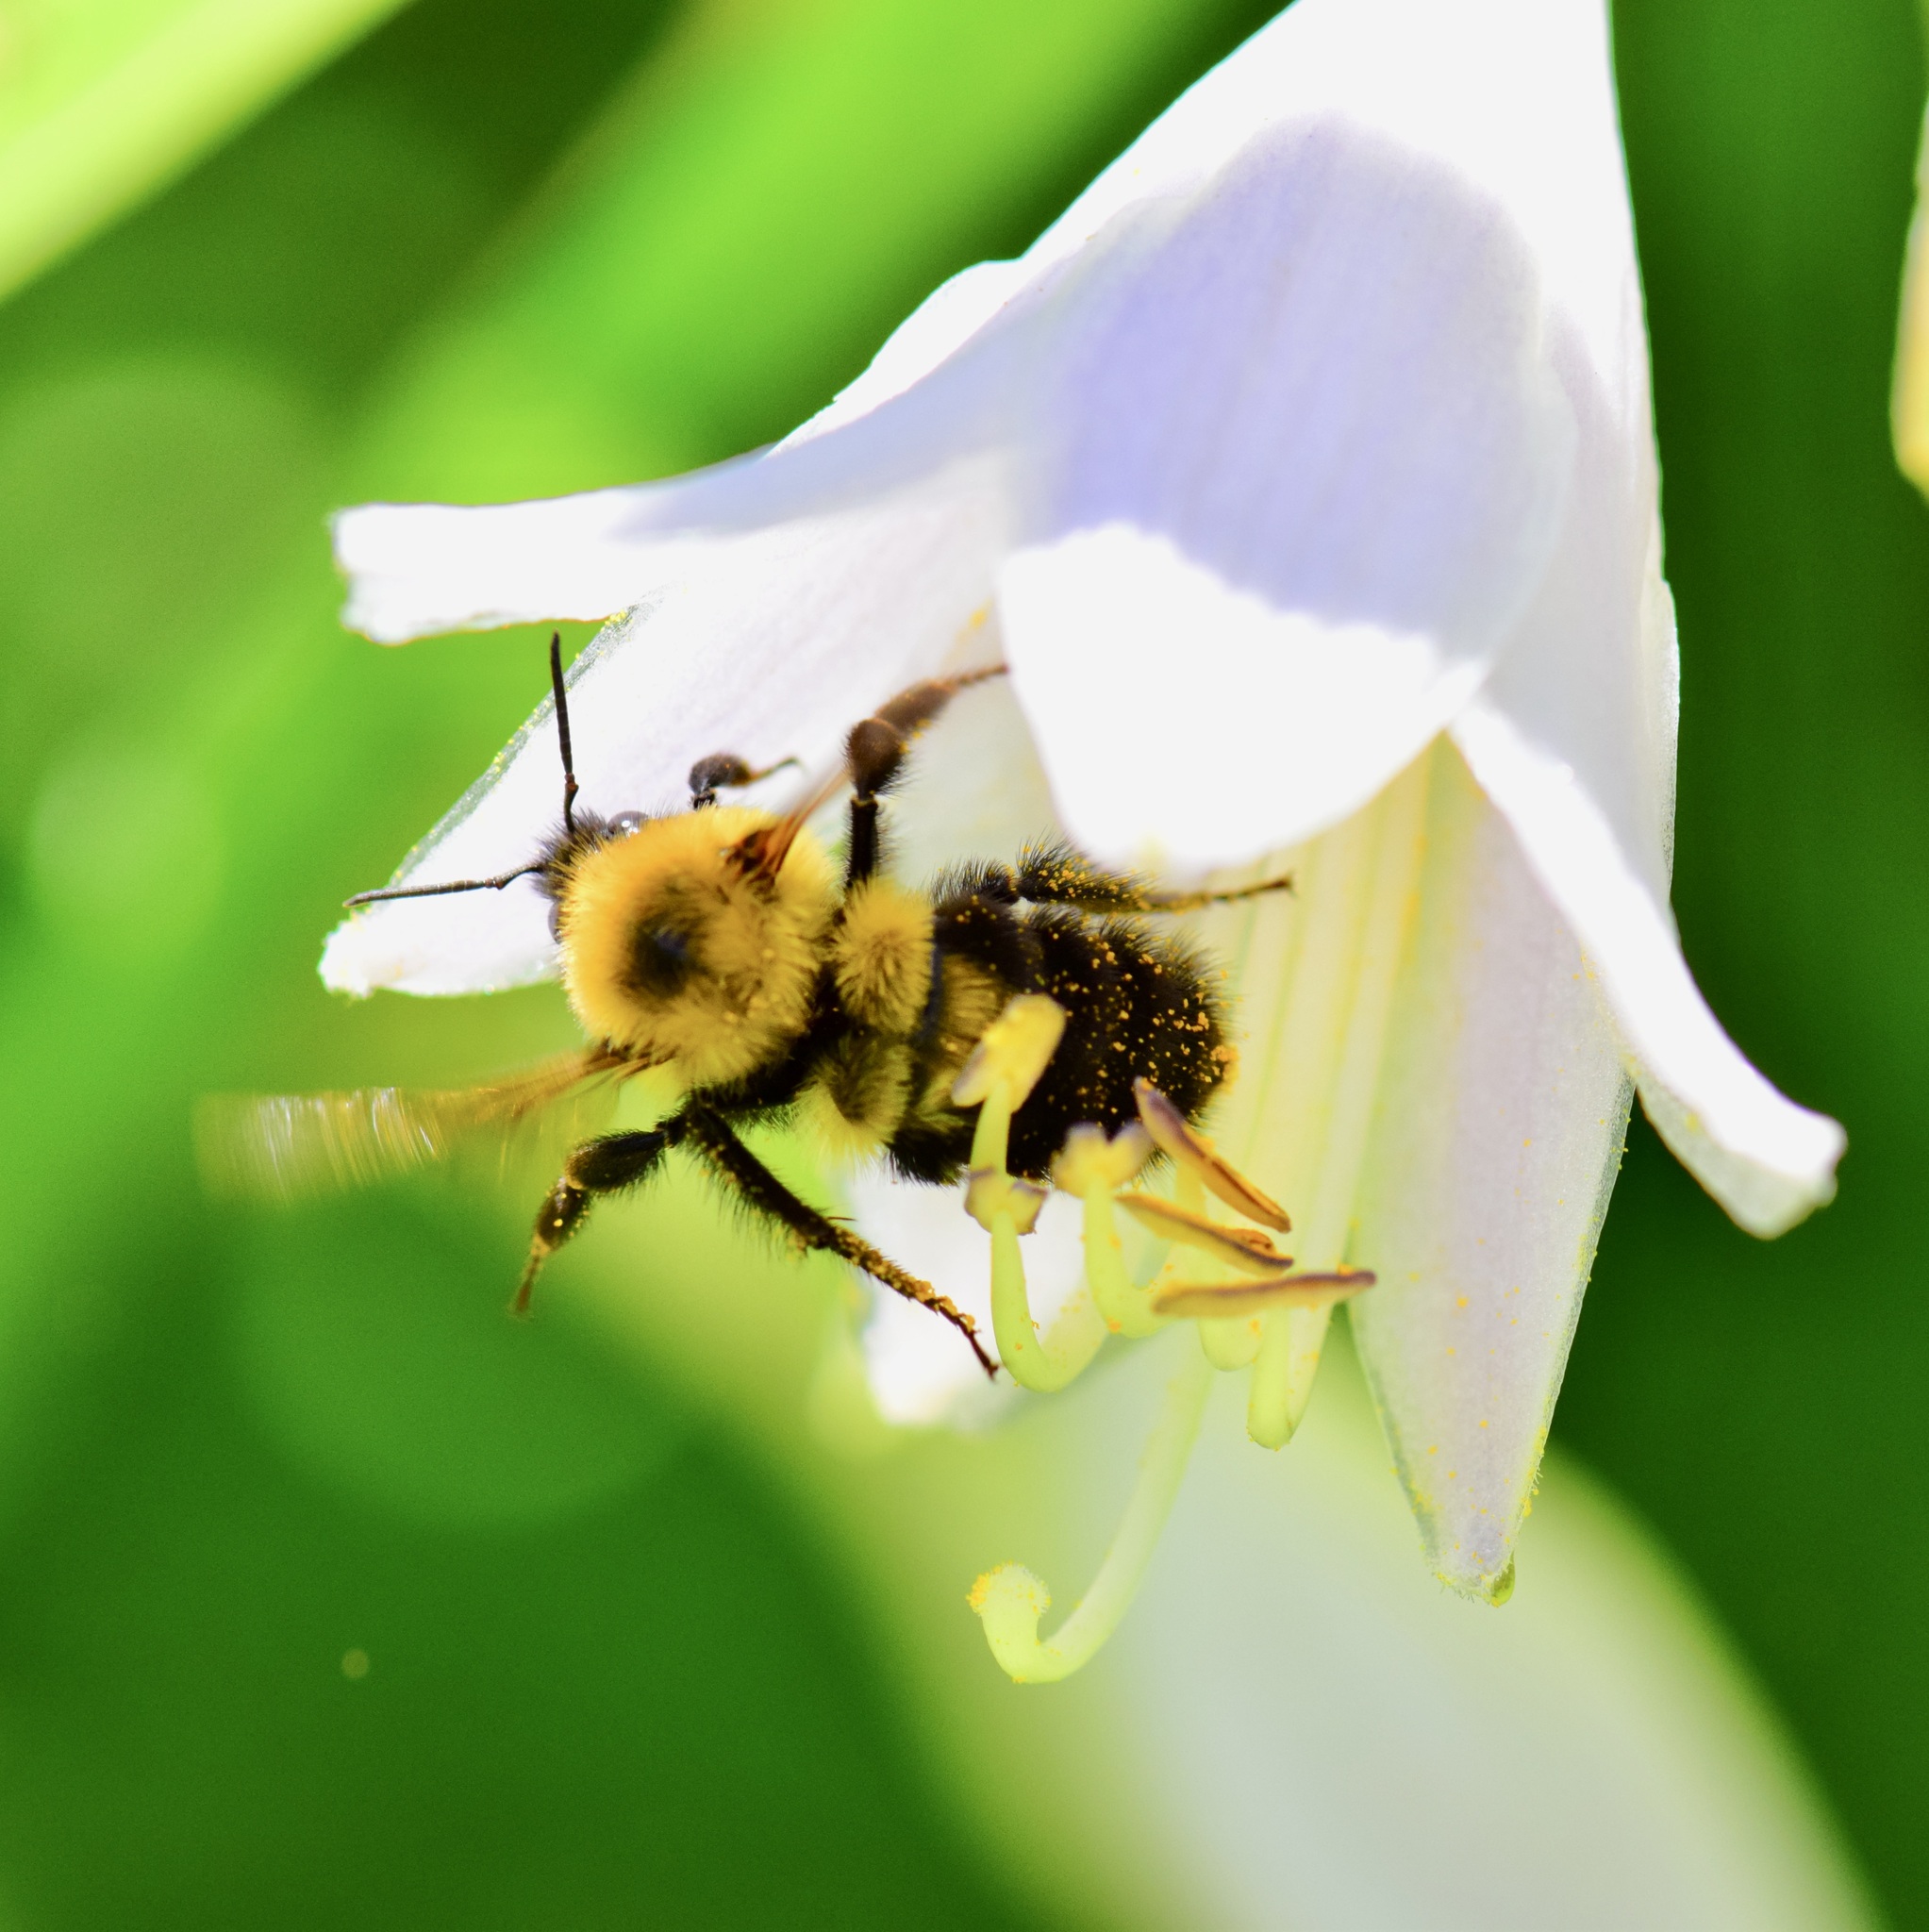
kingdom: Animalia
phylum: Arthropoda
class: Insecta
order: Hymenoptera
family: Apidae
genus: Bombus
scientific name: Bombus bimaculatus
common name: Two-spotted bumble bee
